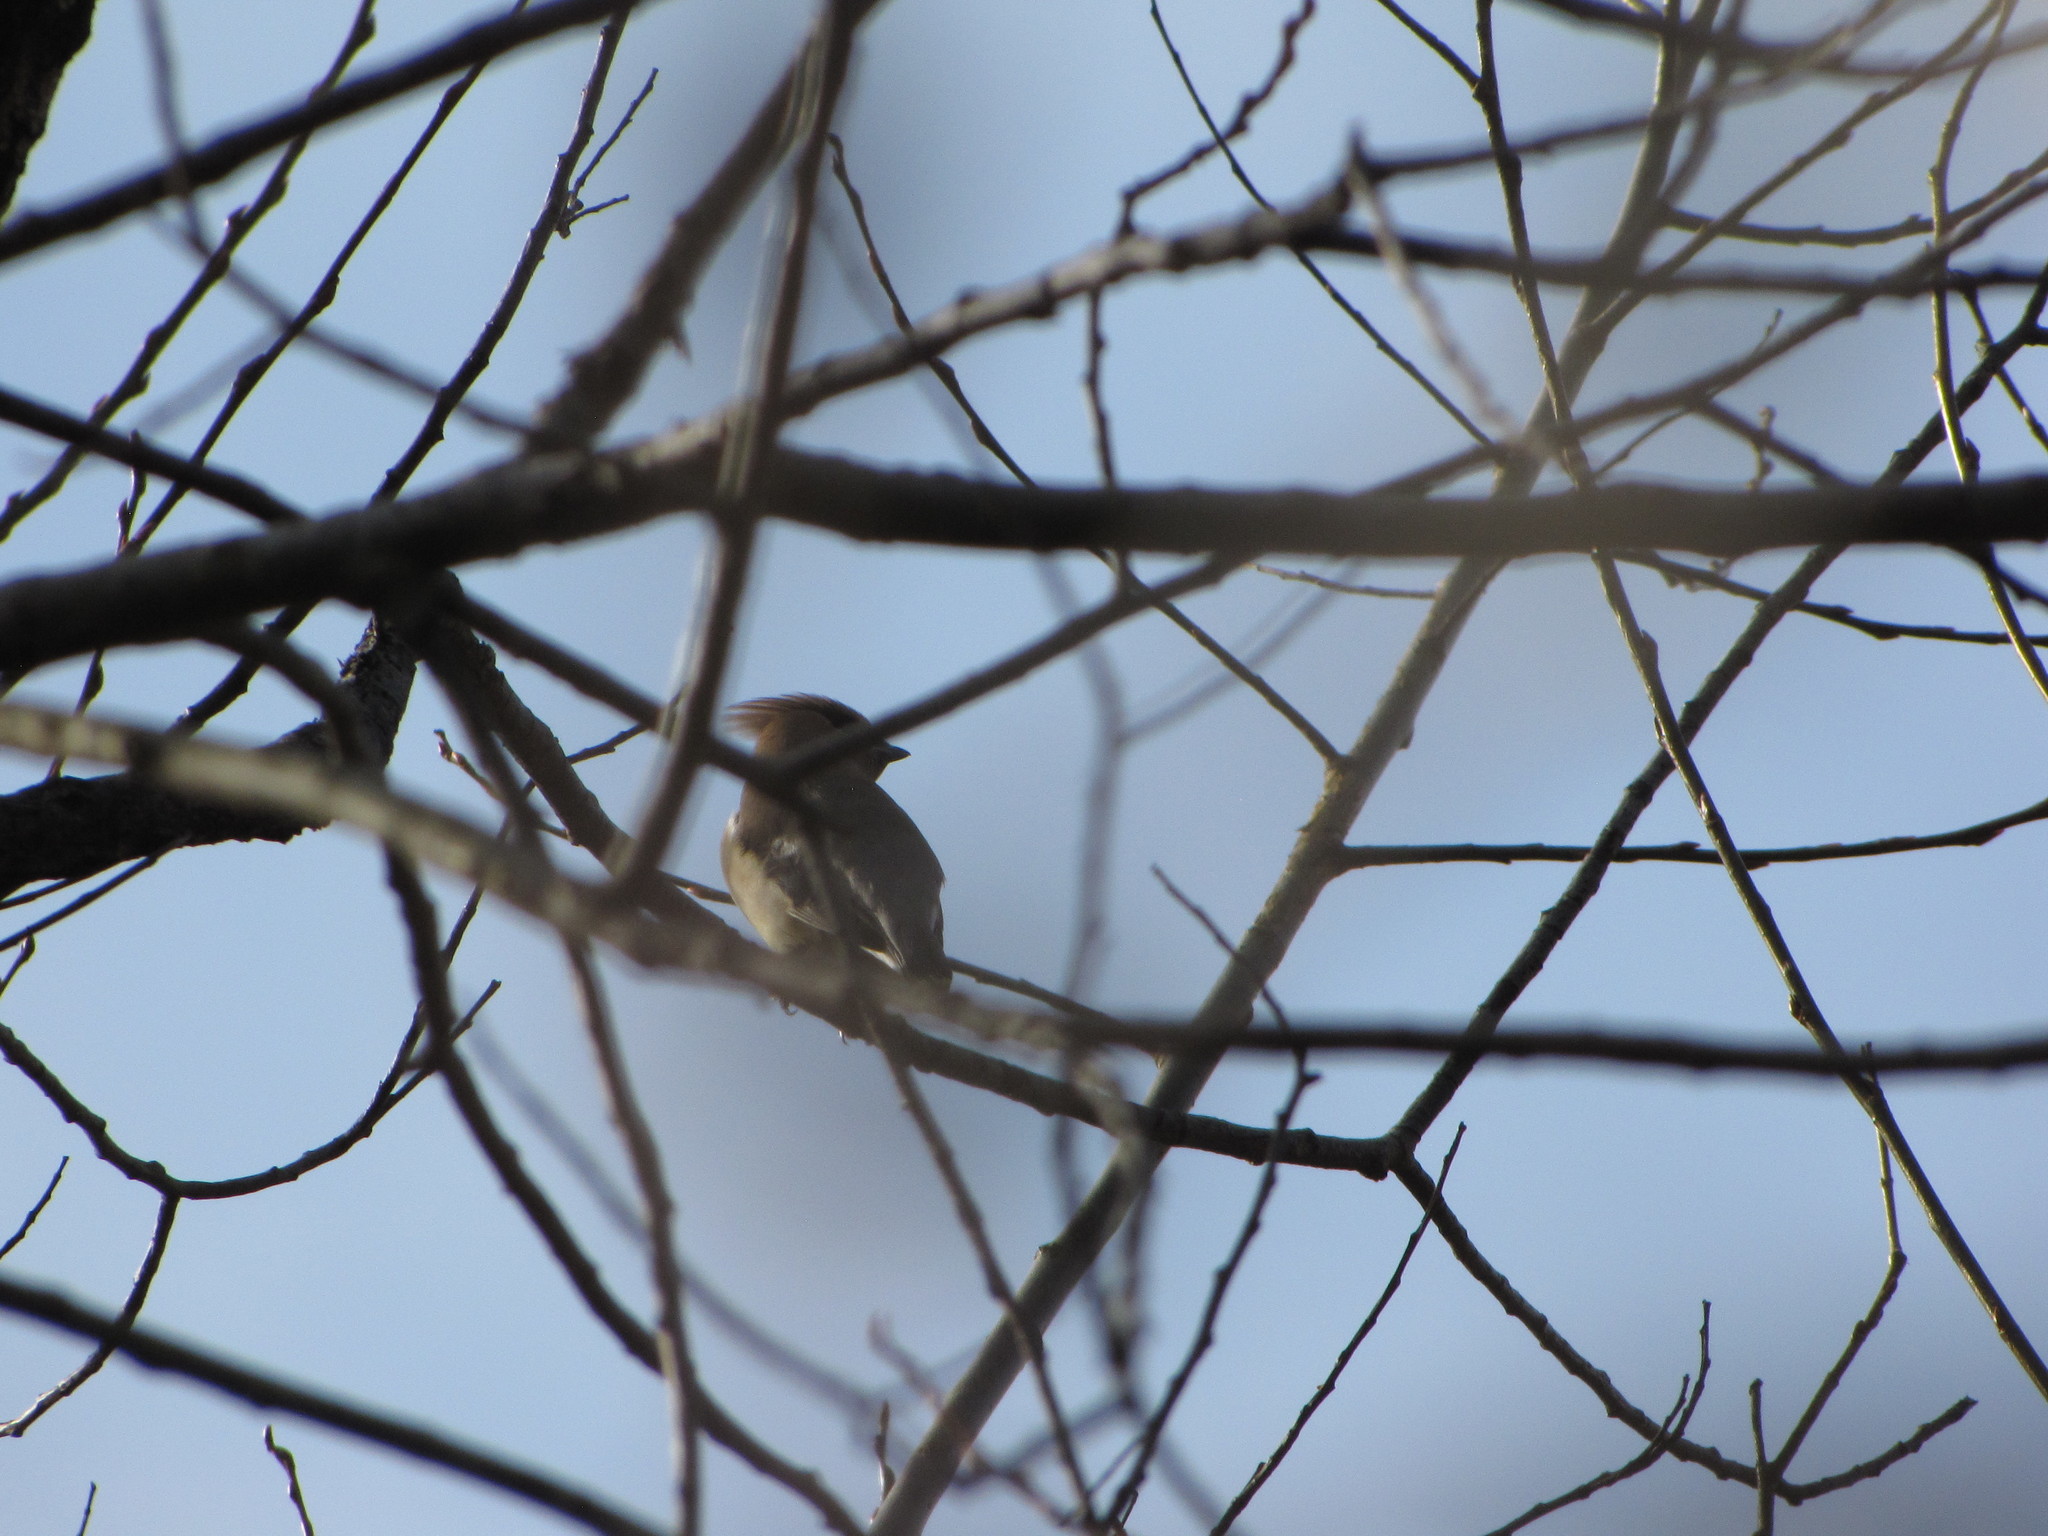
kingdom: Animalia
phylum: Chordata
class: Aves
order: Passeriformes
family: Bombycillidae
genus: Bombycilla
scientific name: Bombycilla cedrorum
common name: Cedar waxwing
